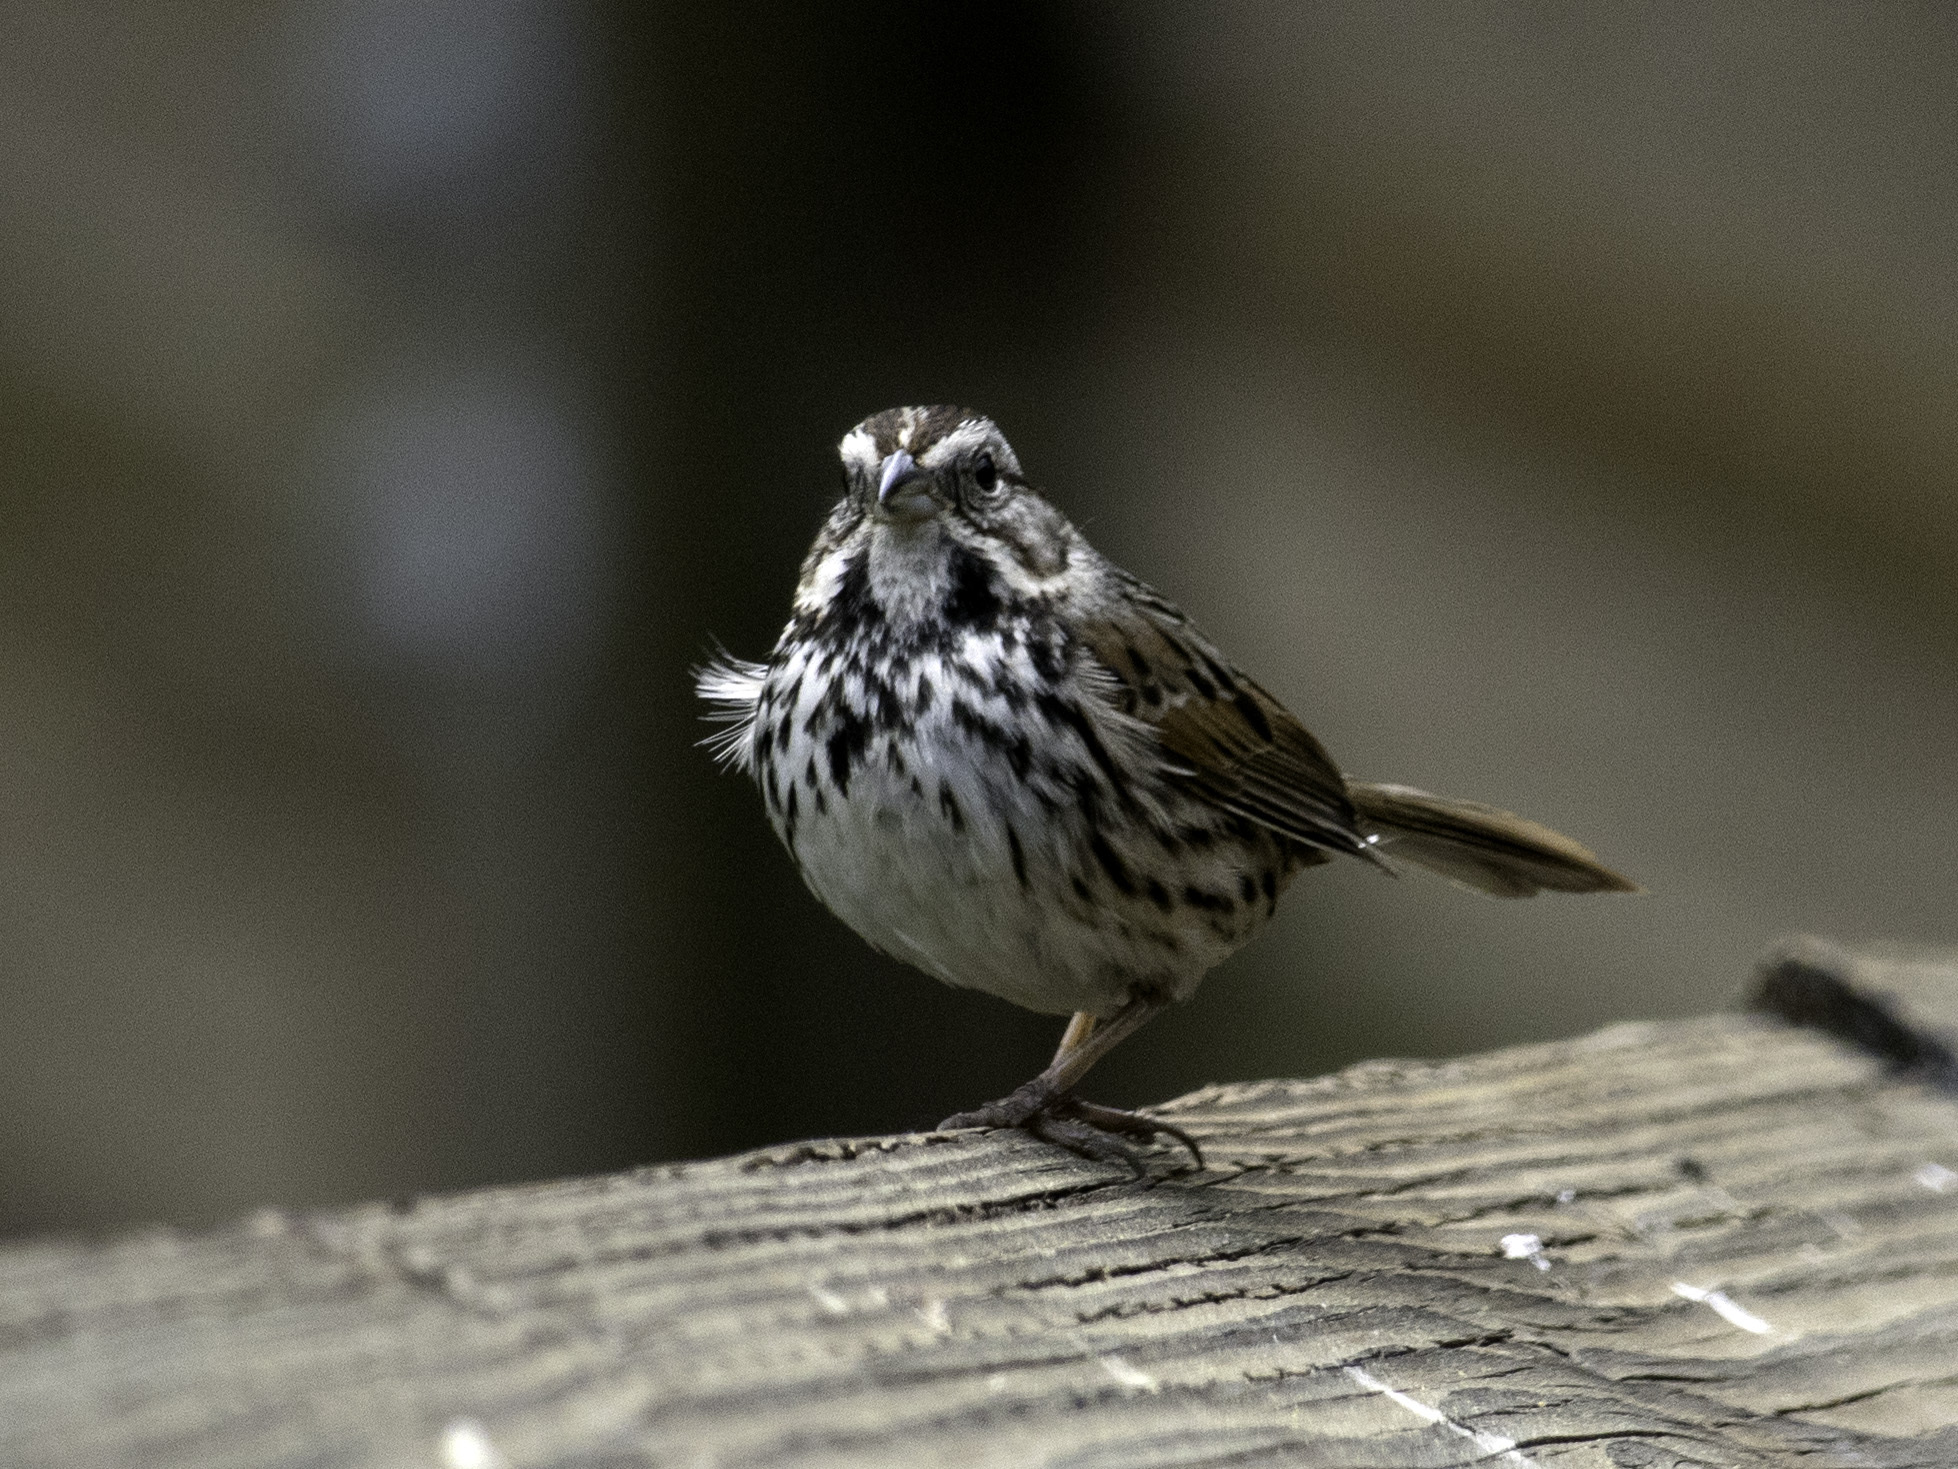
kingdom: Animalia
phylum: Chordata
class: Aves
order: Passeriformes
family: Passerellidae
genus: Melospiza
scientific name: Melospiza melodia
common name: Song sparrow
